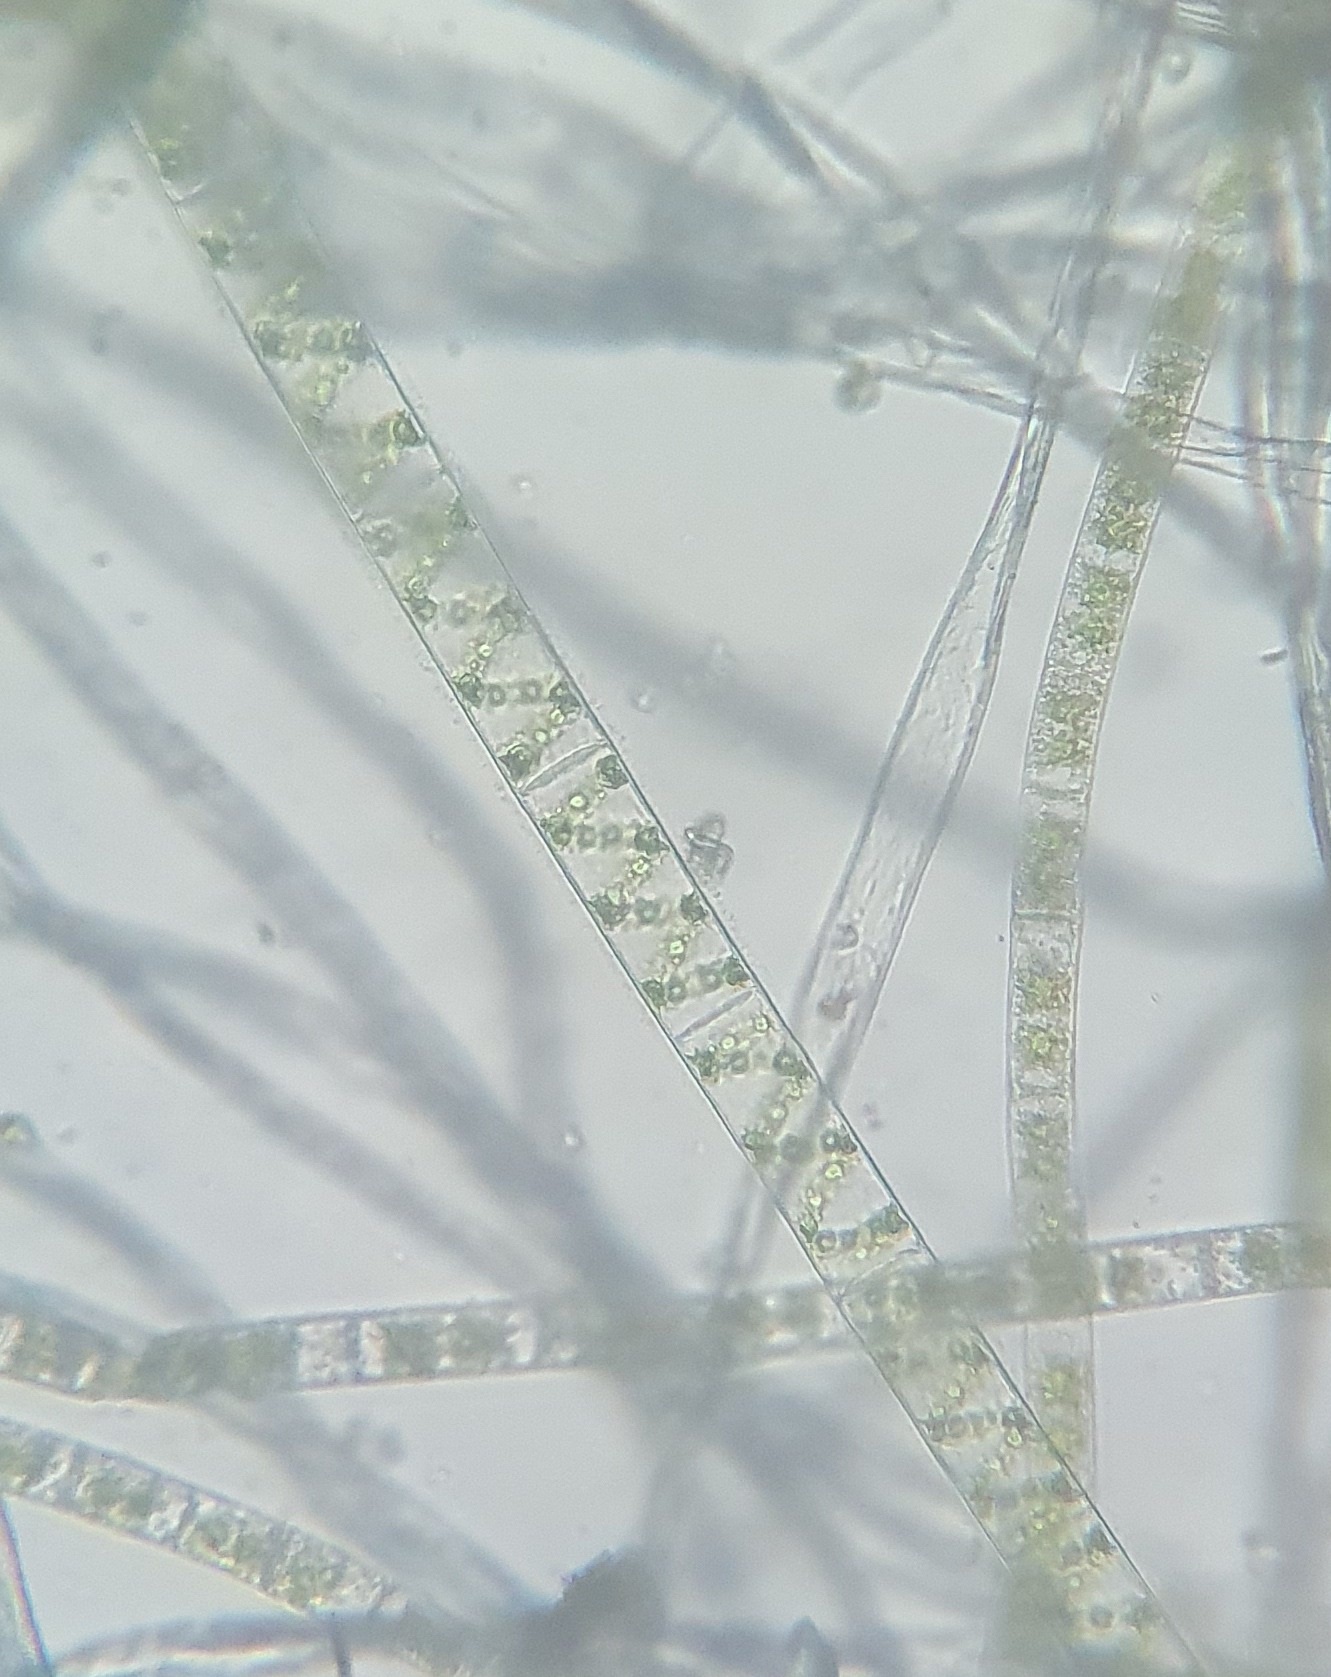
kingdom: Plantae
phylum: Charophyta
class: Zygnematophyceae
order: Zygnematales
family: Zygnemataceae
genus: Spirogyra
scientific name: Spirogyra
